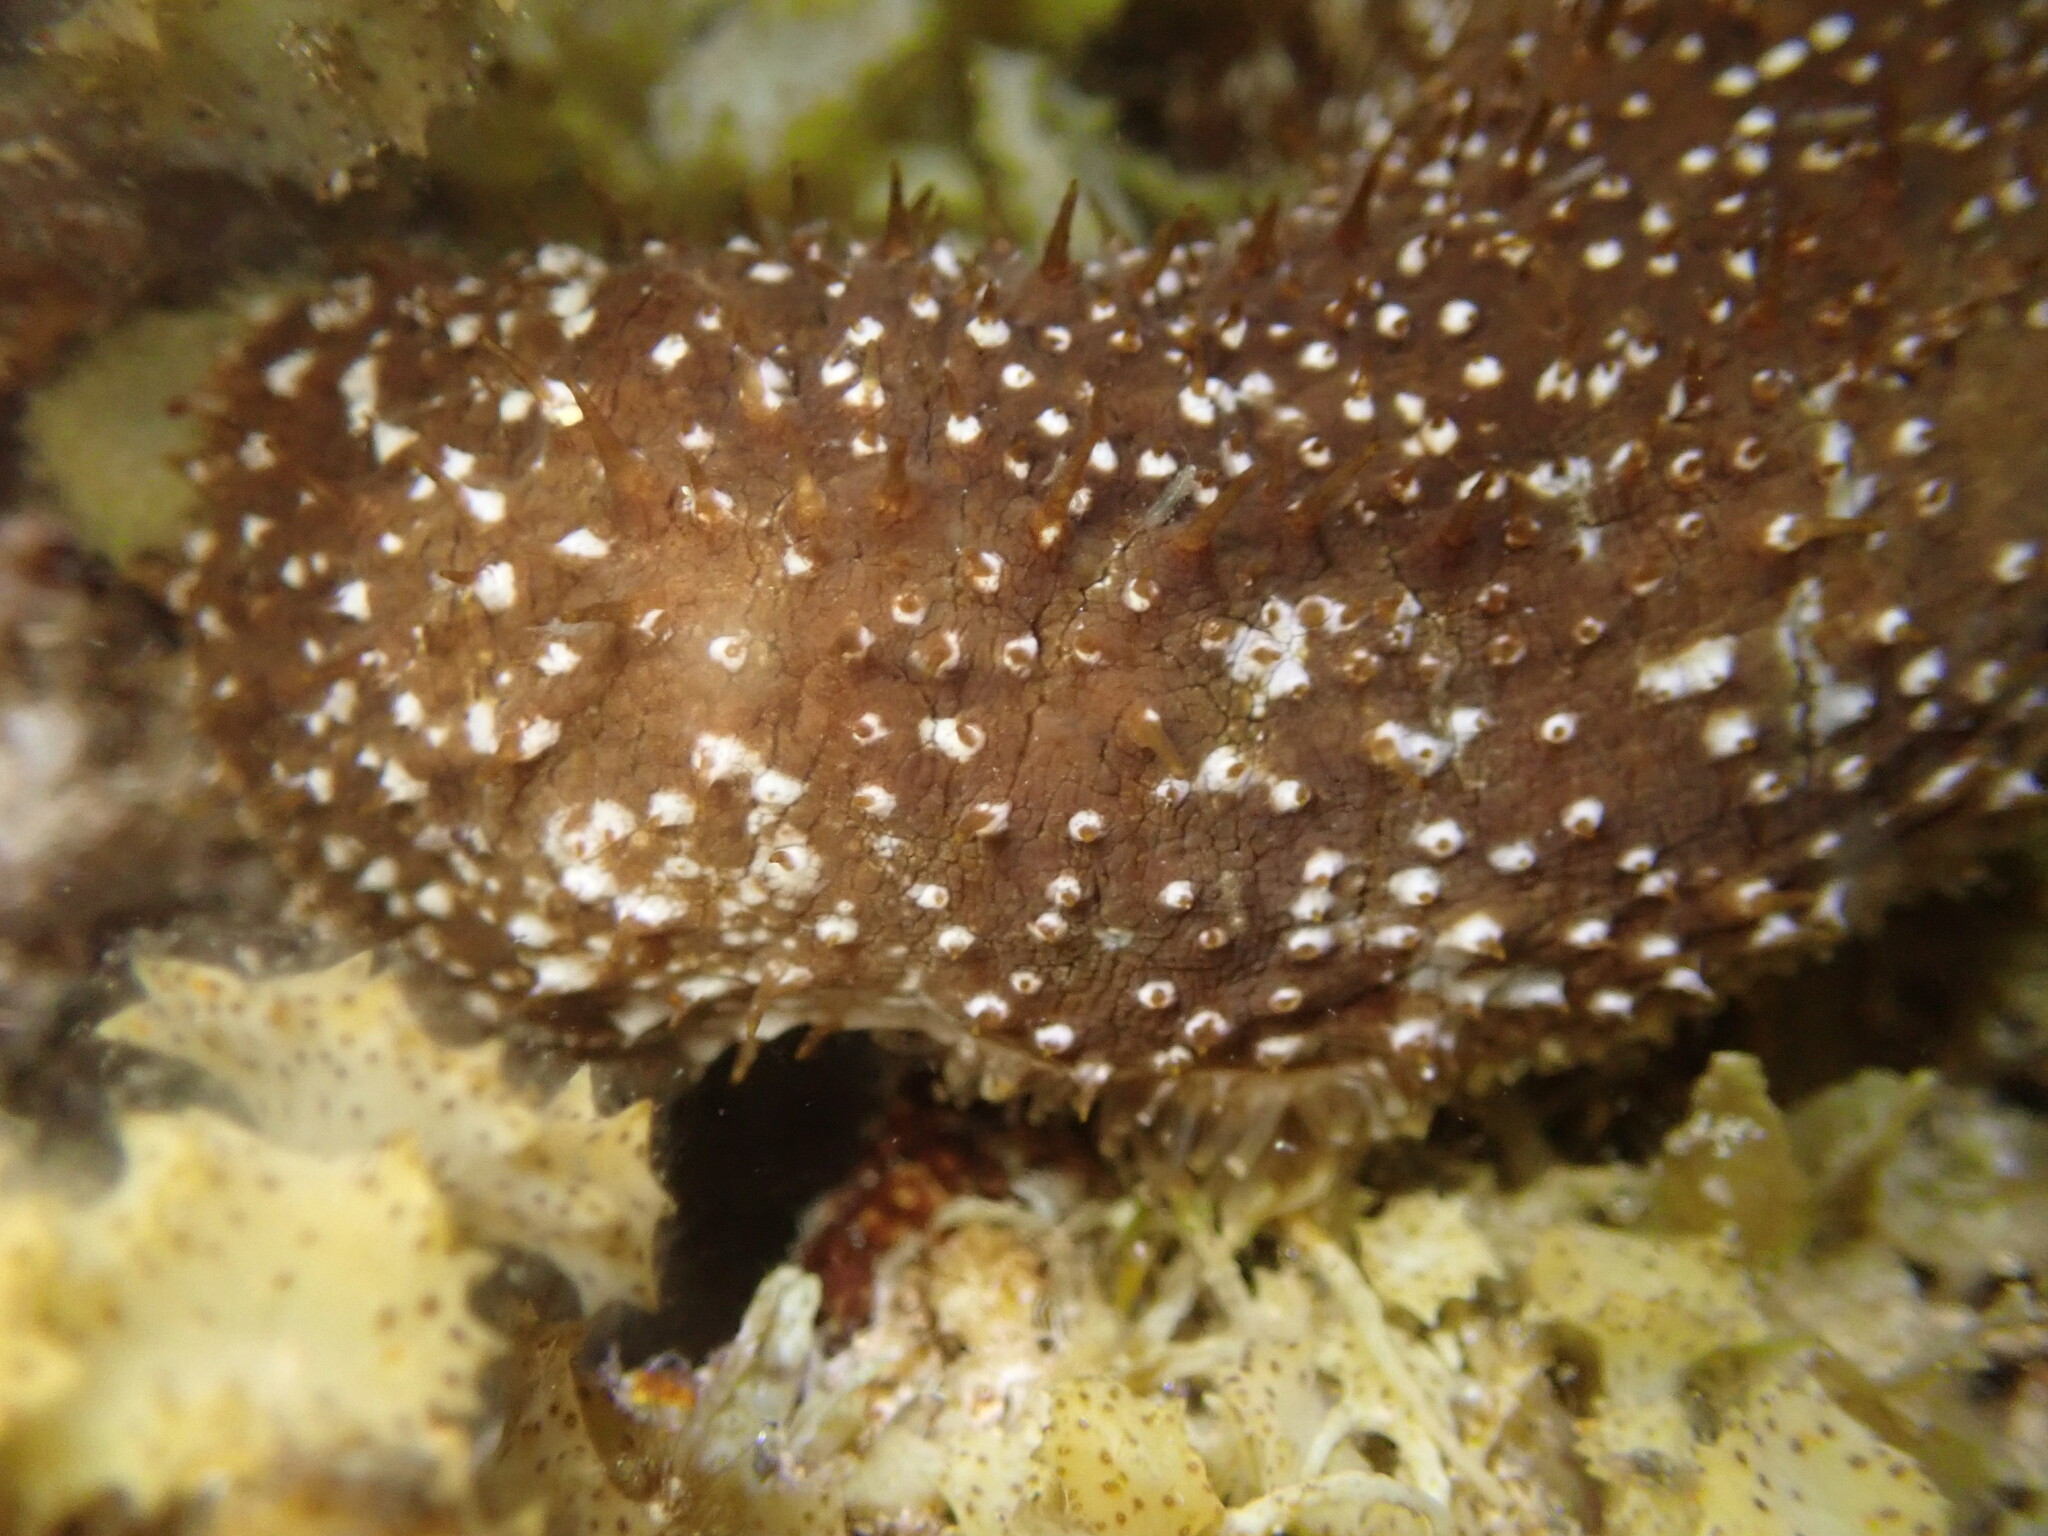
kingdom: Animalia
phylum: Echinodermata
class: Holothuroidea
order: Holothuriida
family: Holothuriidae
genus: Actinopyga
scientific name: Actinopyga varians
